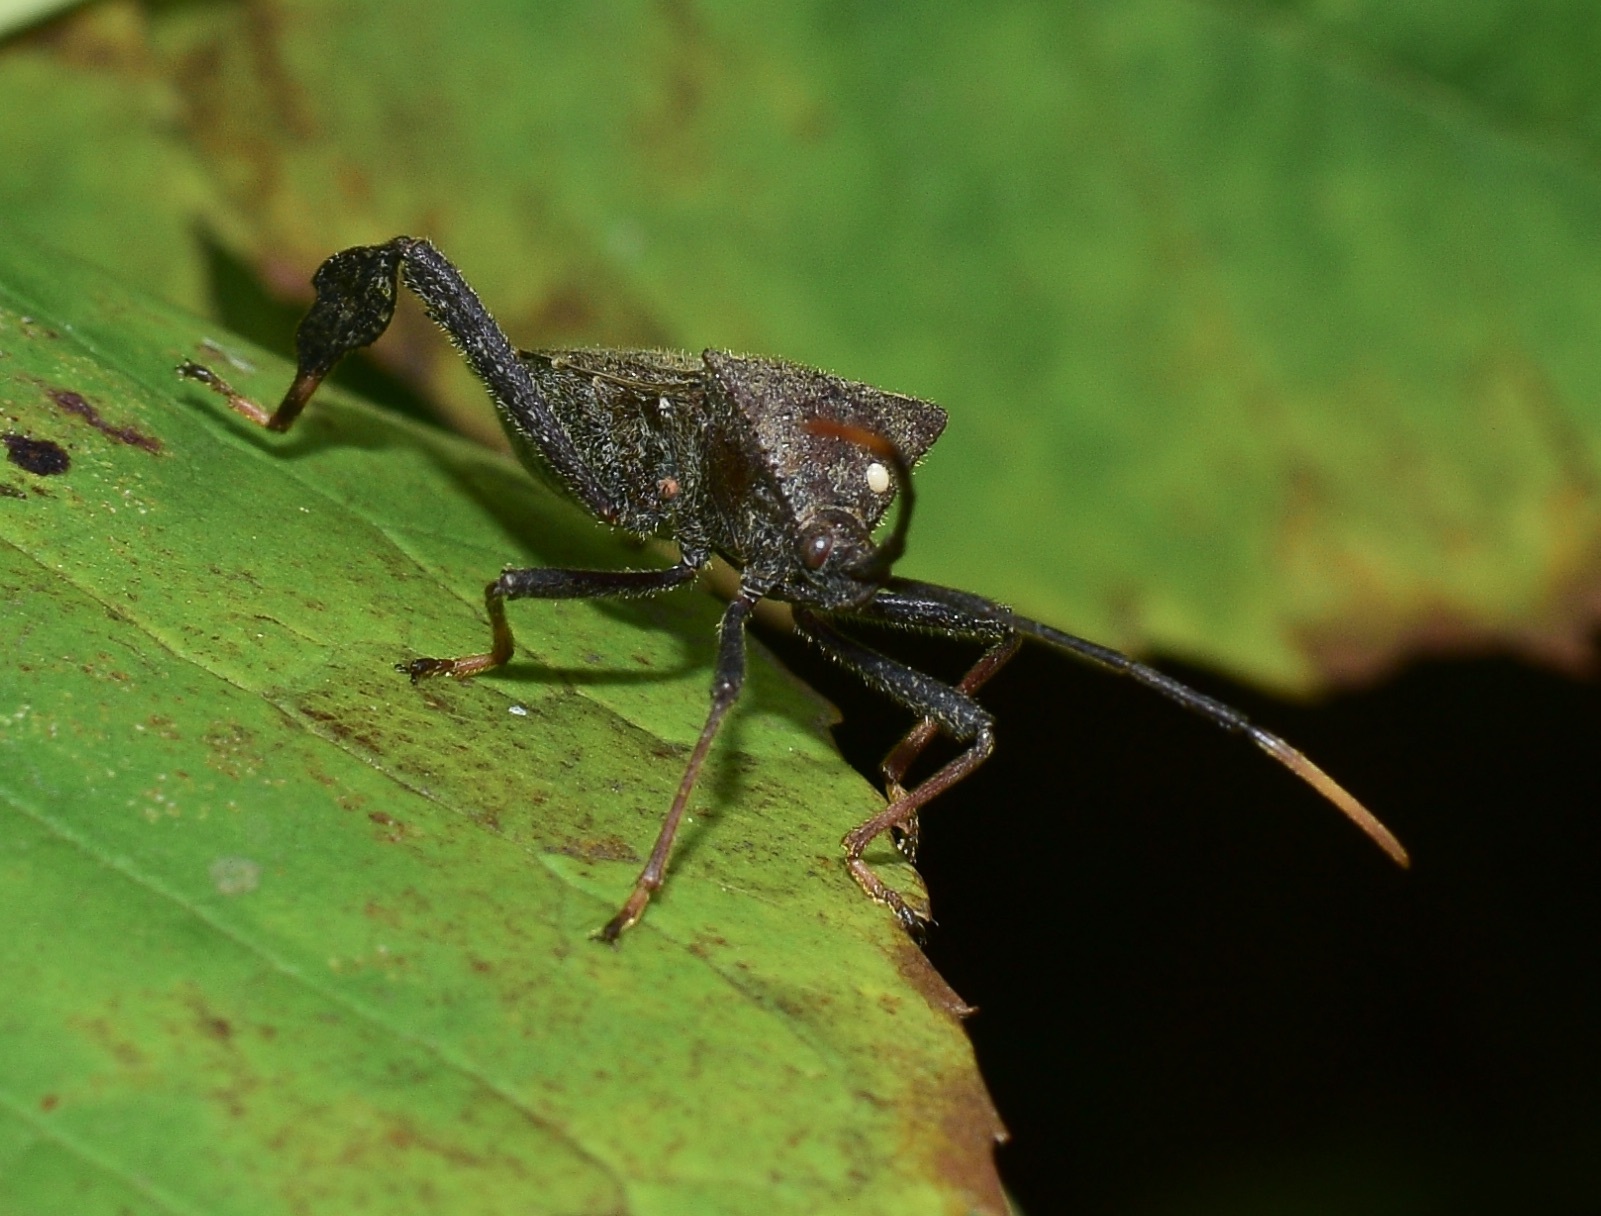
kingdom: Animalia
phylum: Arthropoda
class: Insecta
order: Hemiptera
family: Coreidae
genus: Acanthocephala
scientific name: Acanthocephala terminalis
